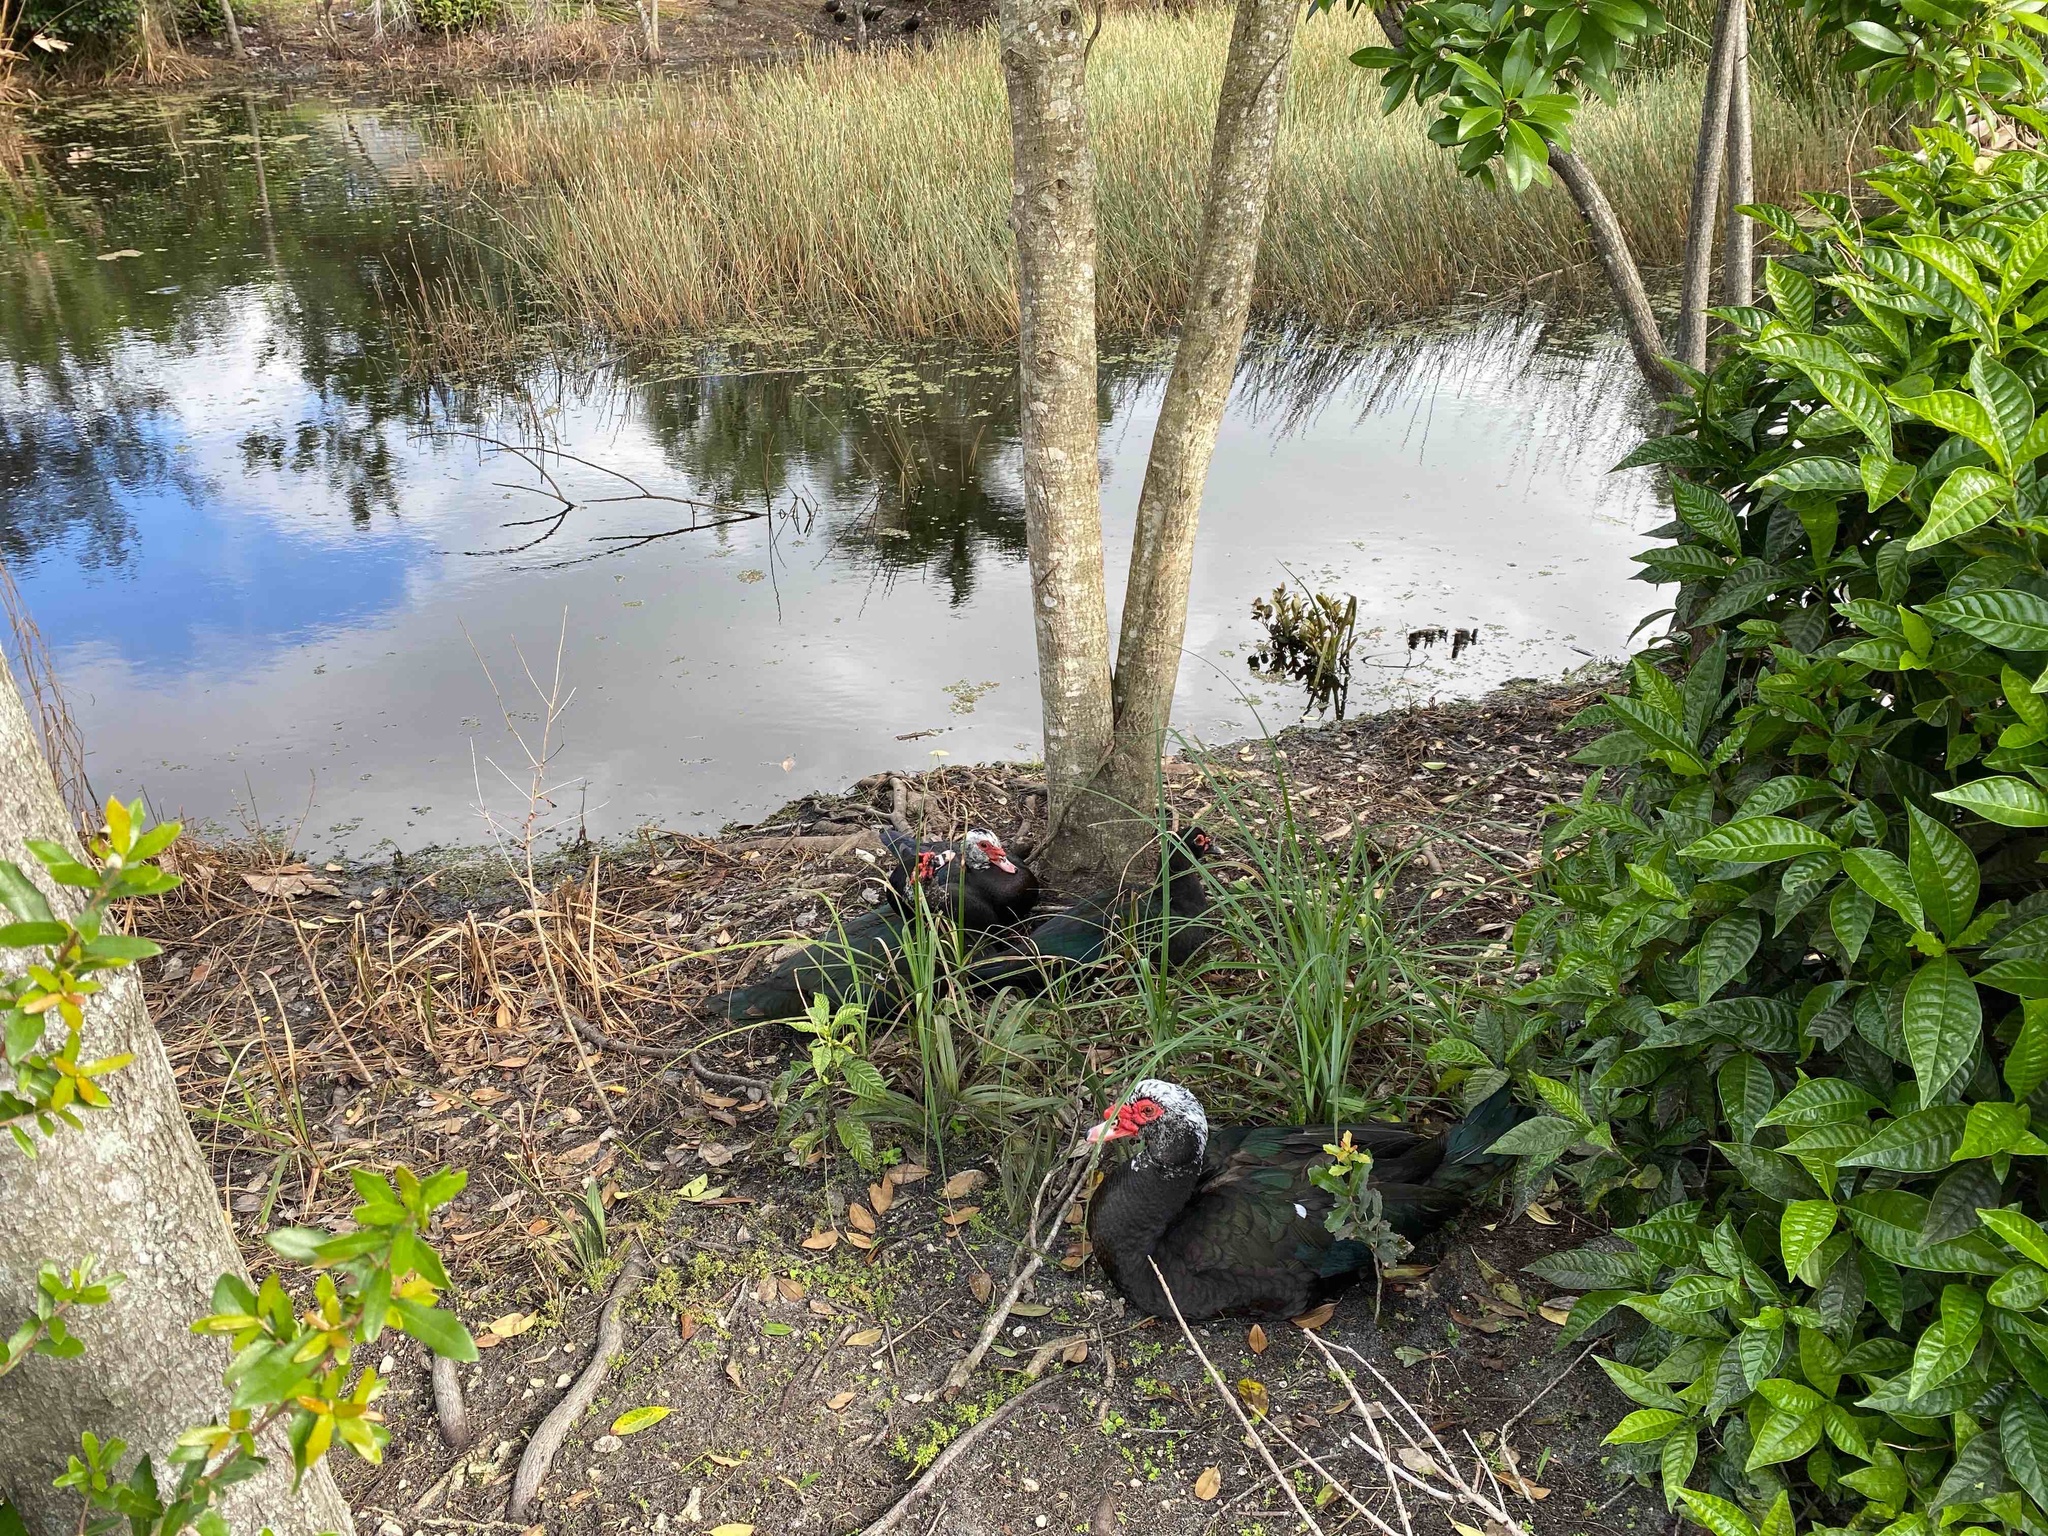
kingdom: Animalia
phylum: Chordata
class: Aves
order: Anseriformes
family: Anatidae
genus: Cairina
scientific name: Cairina moschata
